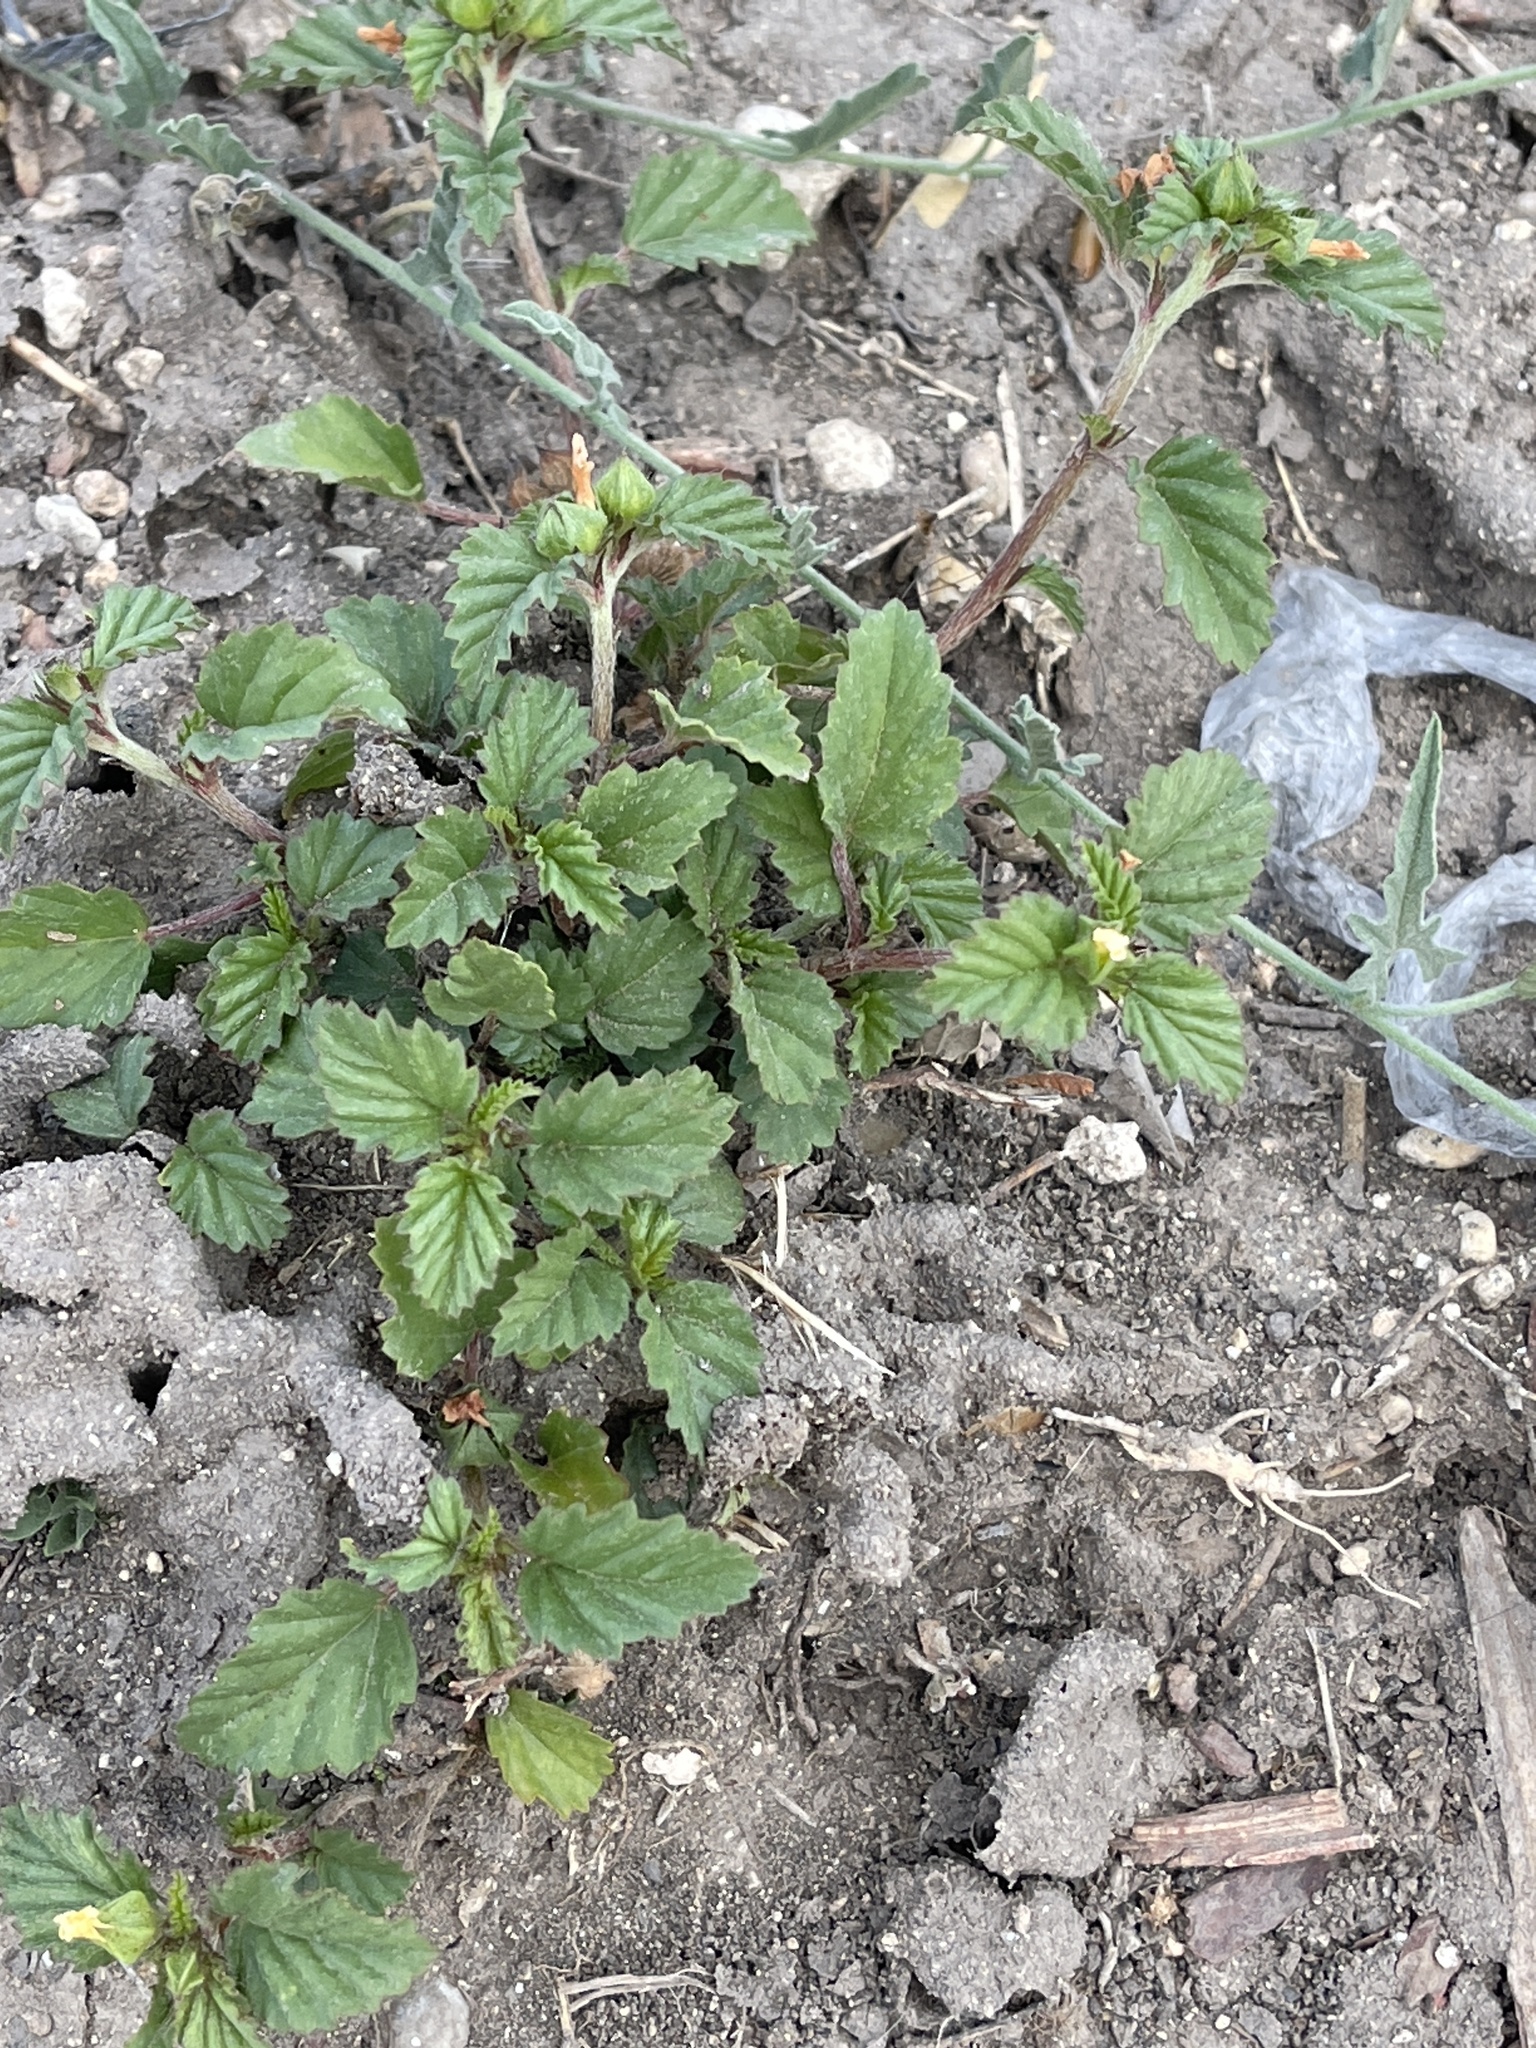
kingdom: Plantae
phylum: Tracheophyta
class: Magnoliopsida
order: Malvales
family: Malvaceae
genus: Malvastrum
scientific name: Malvastrum coromandelianum
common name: Threelobe false mallow
